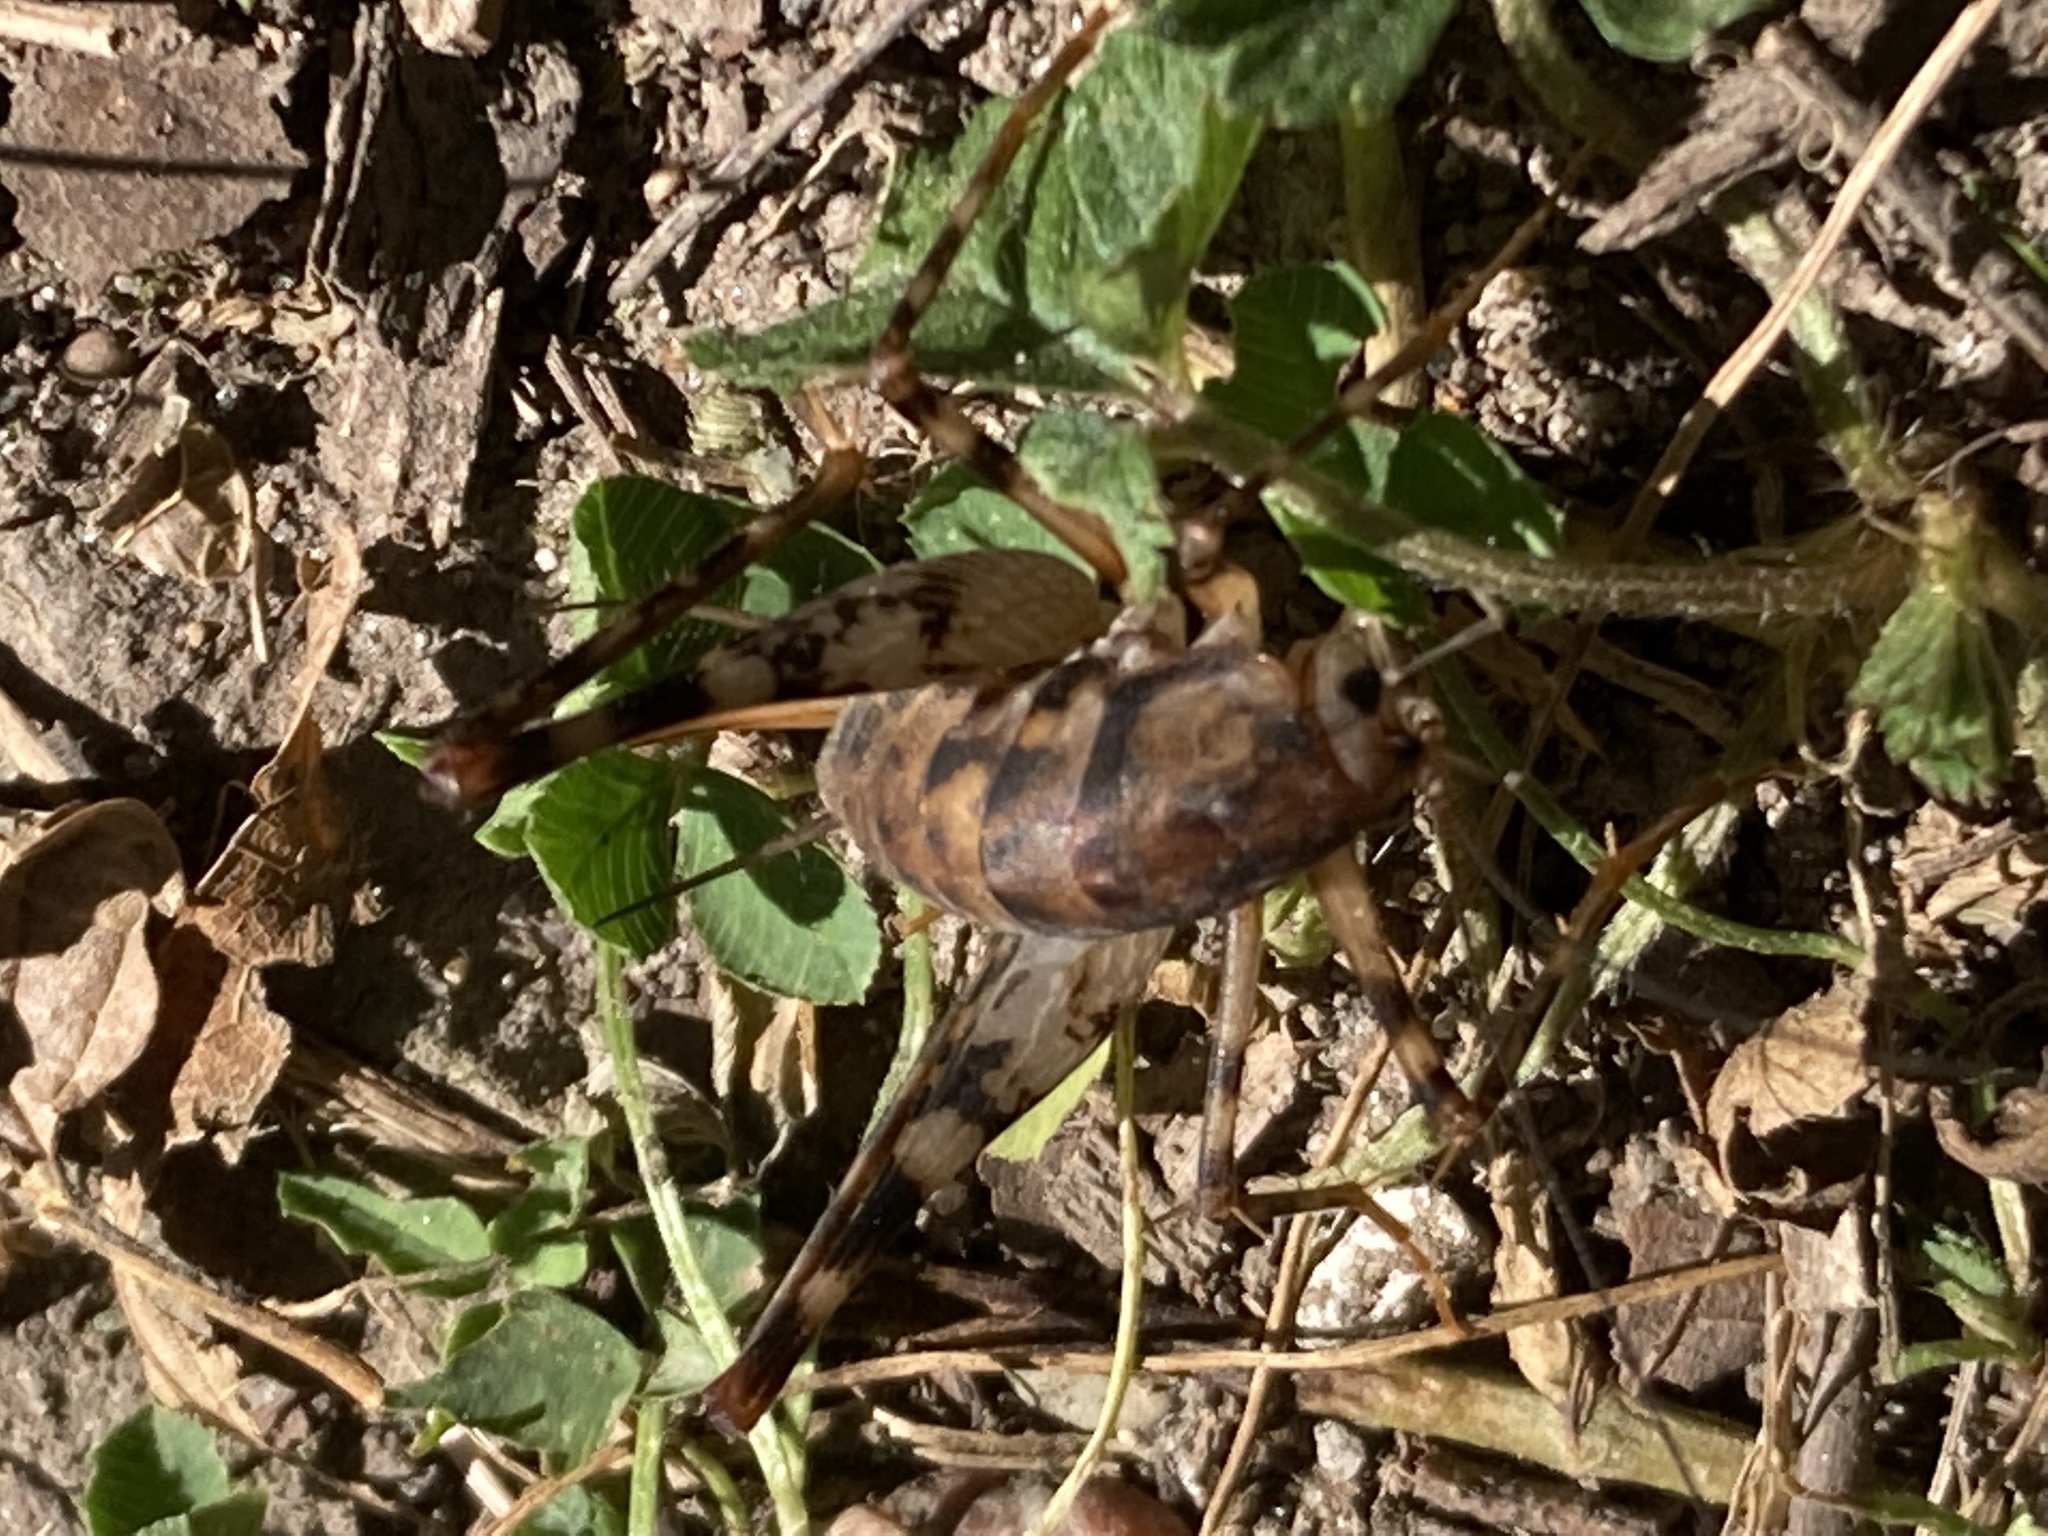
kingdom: Animalia
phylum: Arthropoda
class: Insecta
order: Orthoptera
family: Rhaphidophoridae
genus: Tachycines
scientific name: Tachycines asynamorus
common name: Greenhouse camel cricket
